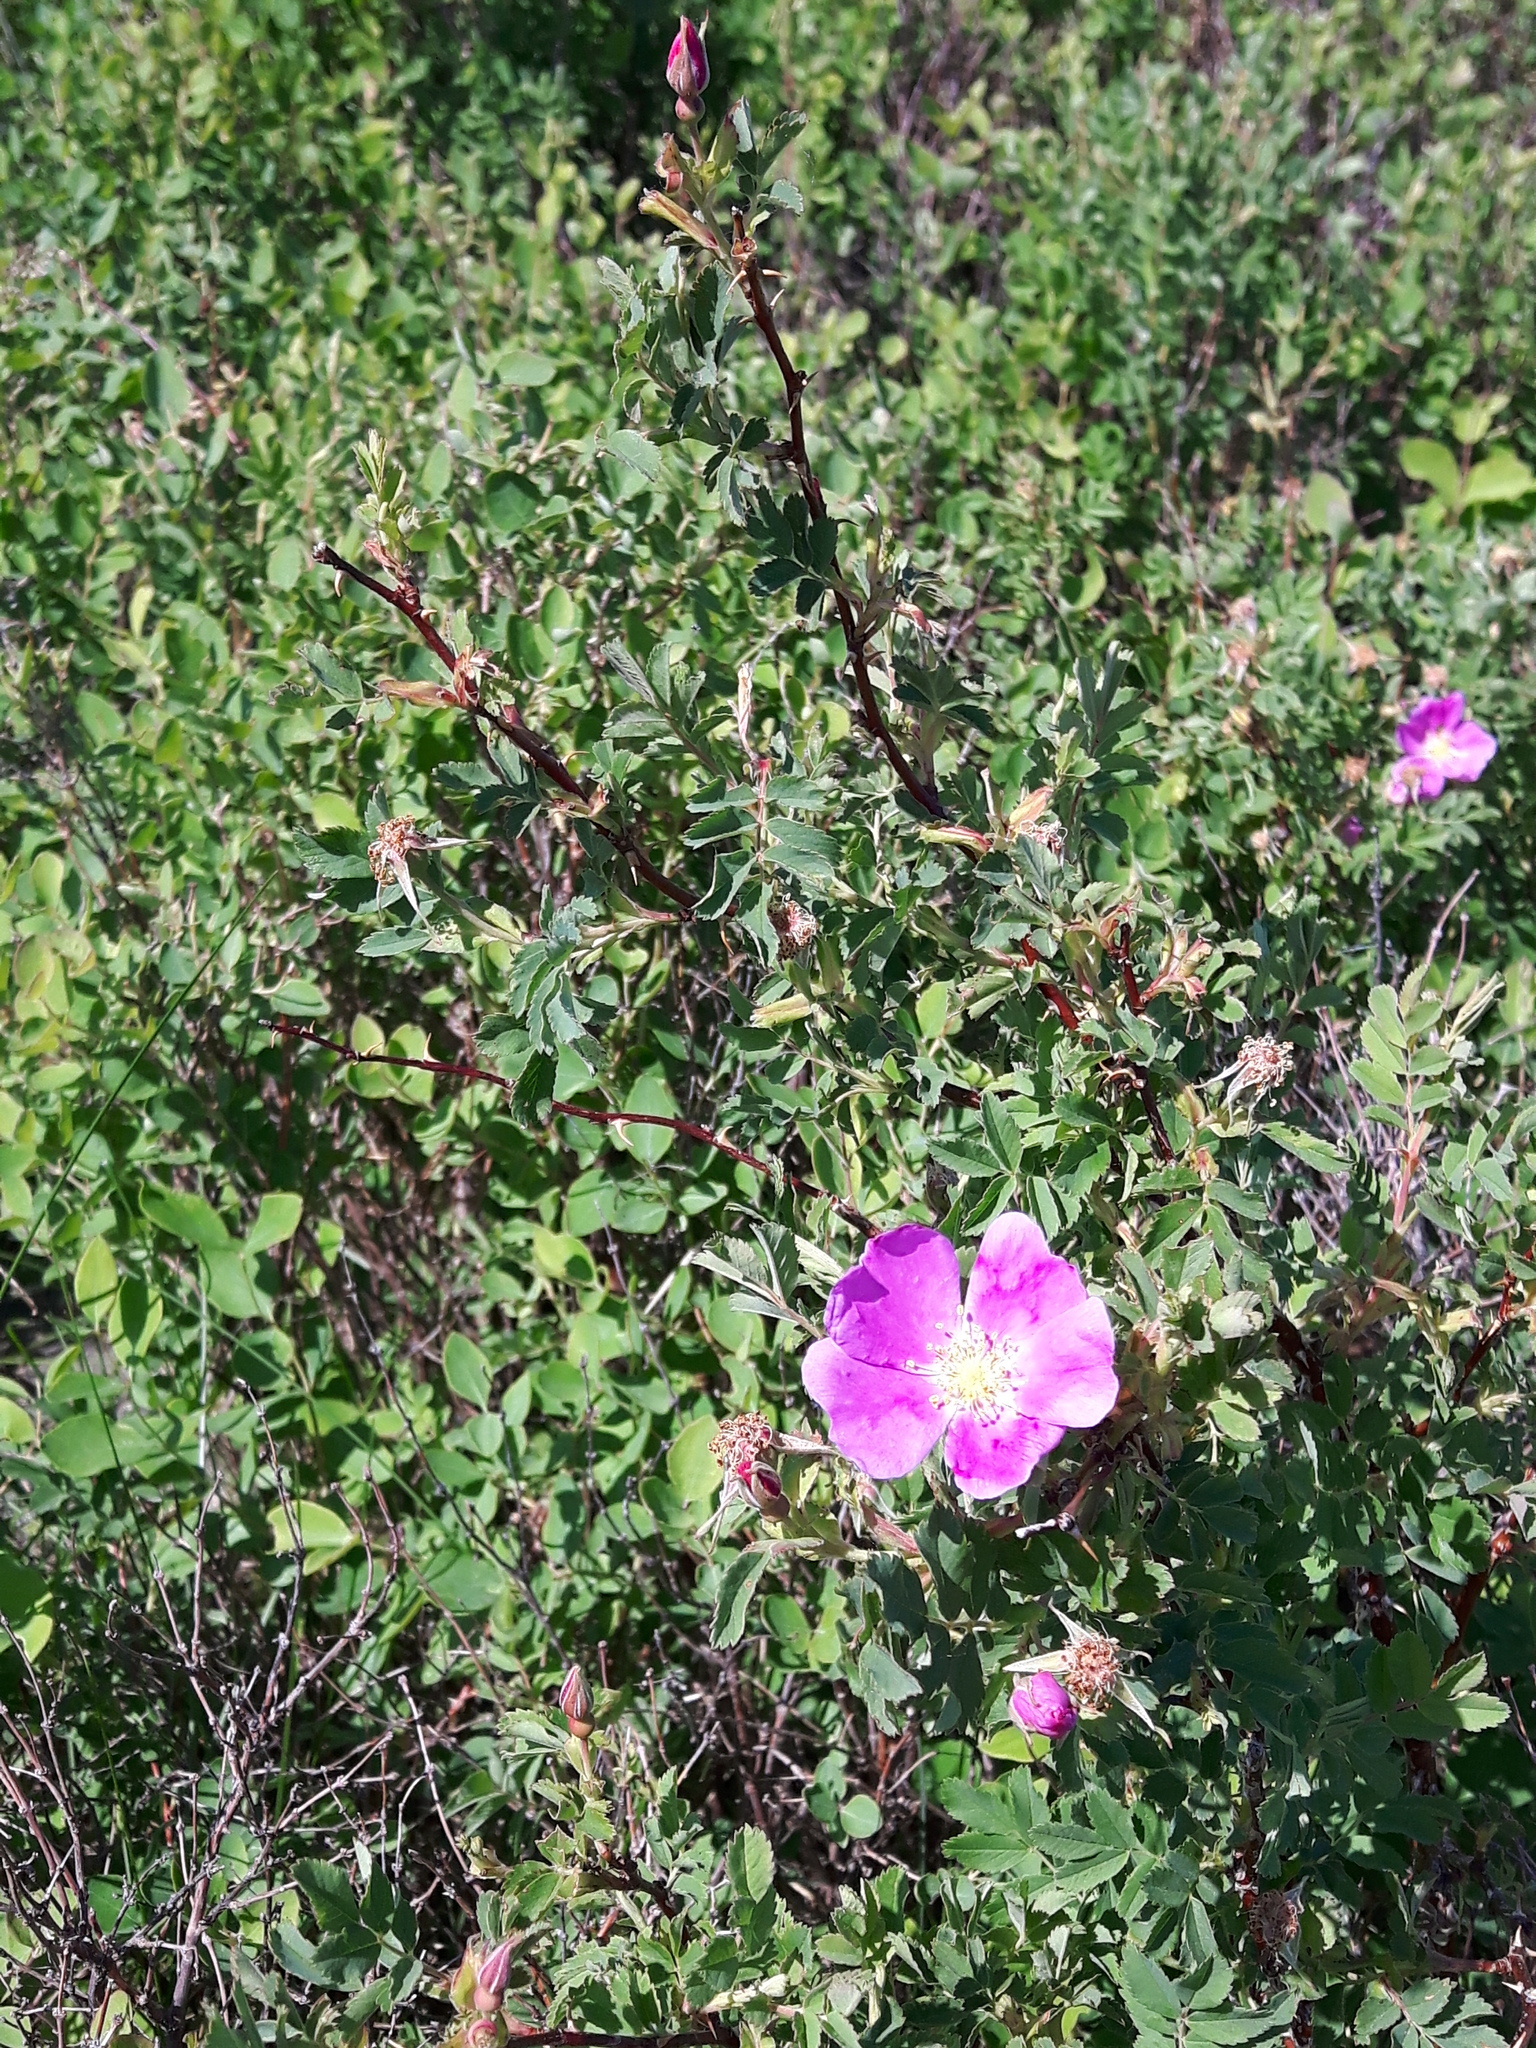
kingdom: Plantae
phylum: Tracheophyta
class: Magnoliopsida
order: Rosales
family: Rosaceae
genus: Rosa
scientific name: Rosa woodsii
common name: Woods's rose
